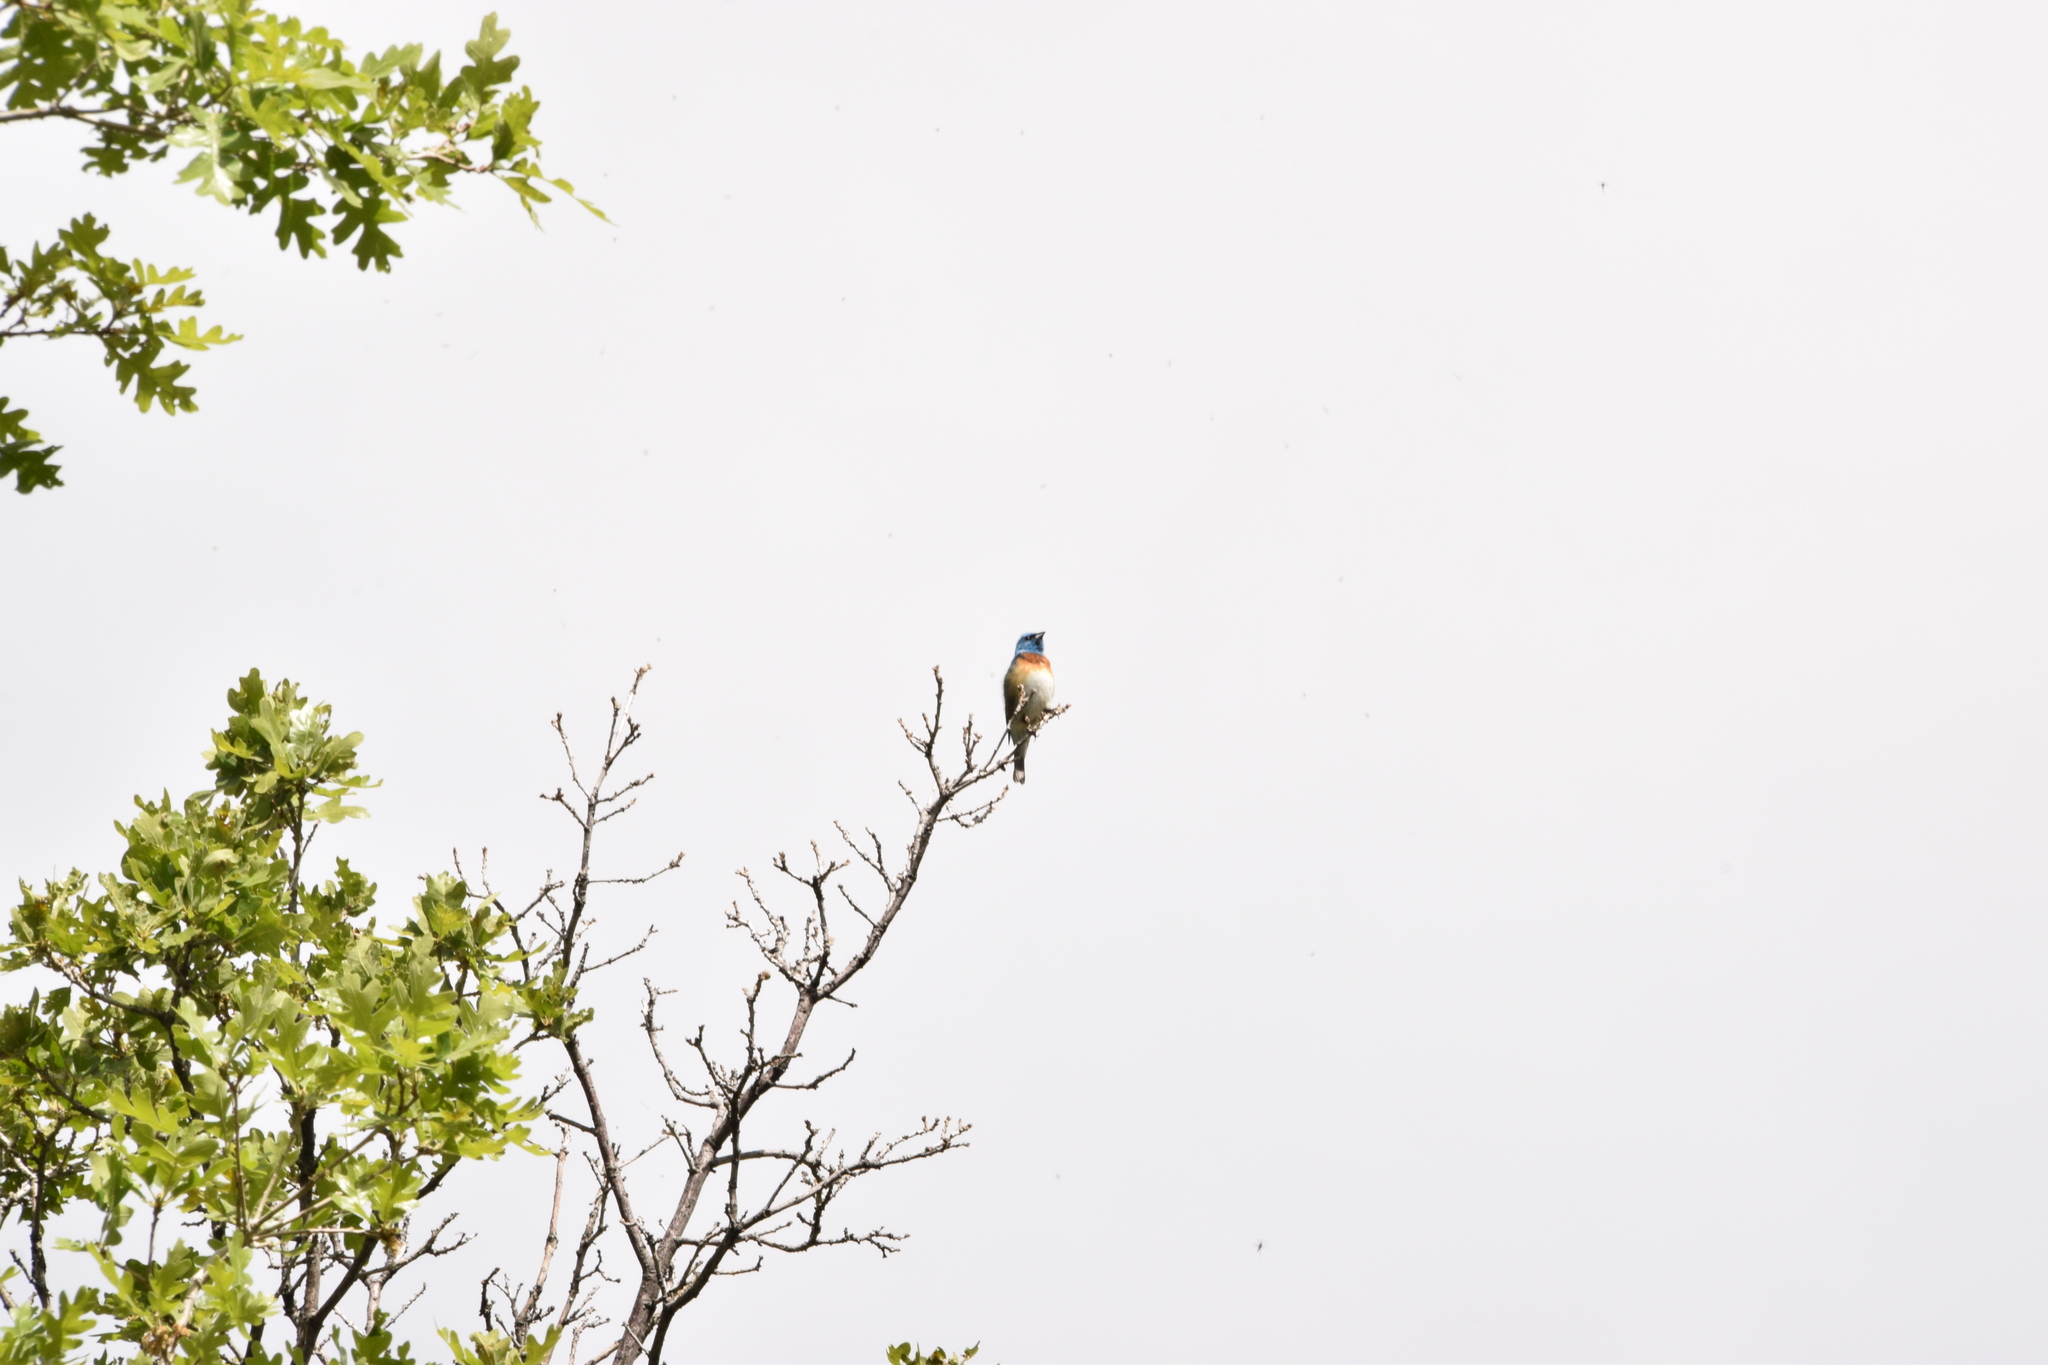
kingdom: Animalia
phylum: Chordata
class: Aves
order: Passeriformes
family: Cardinalidae
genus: Passerina
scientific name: Passerina amoena
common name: Lazuli bunting
